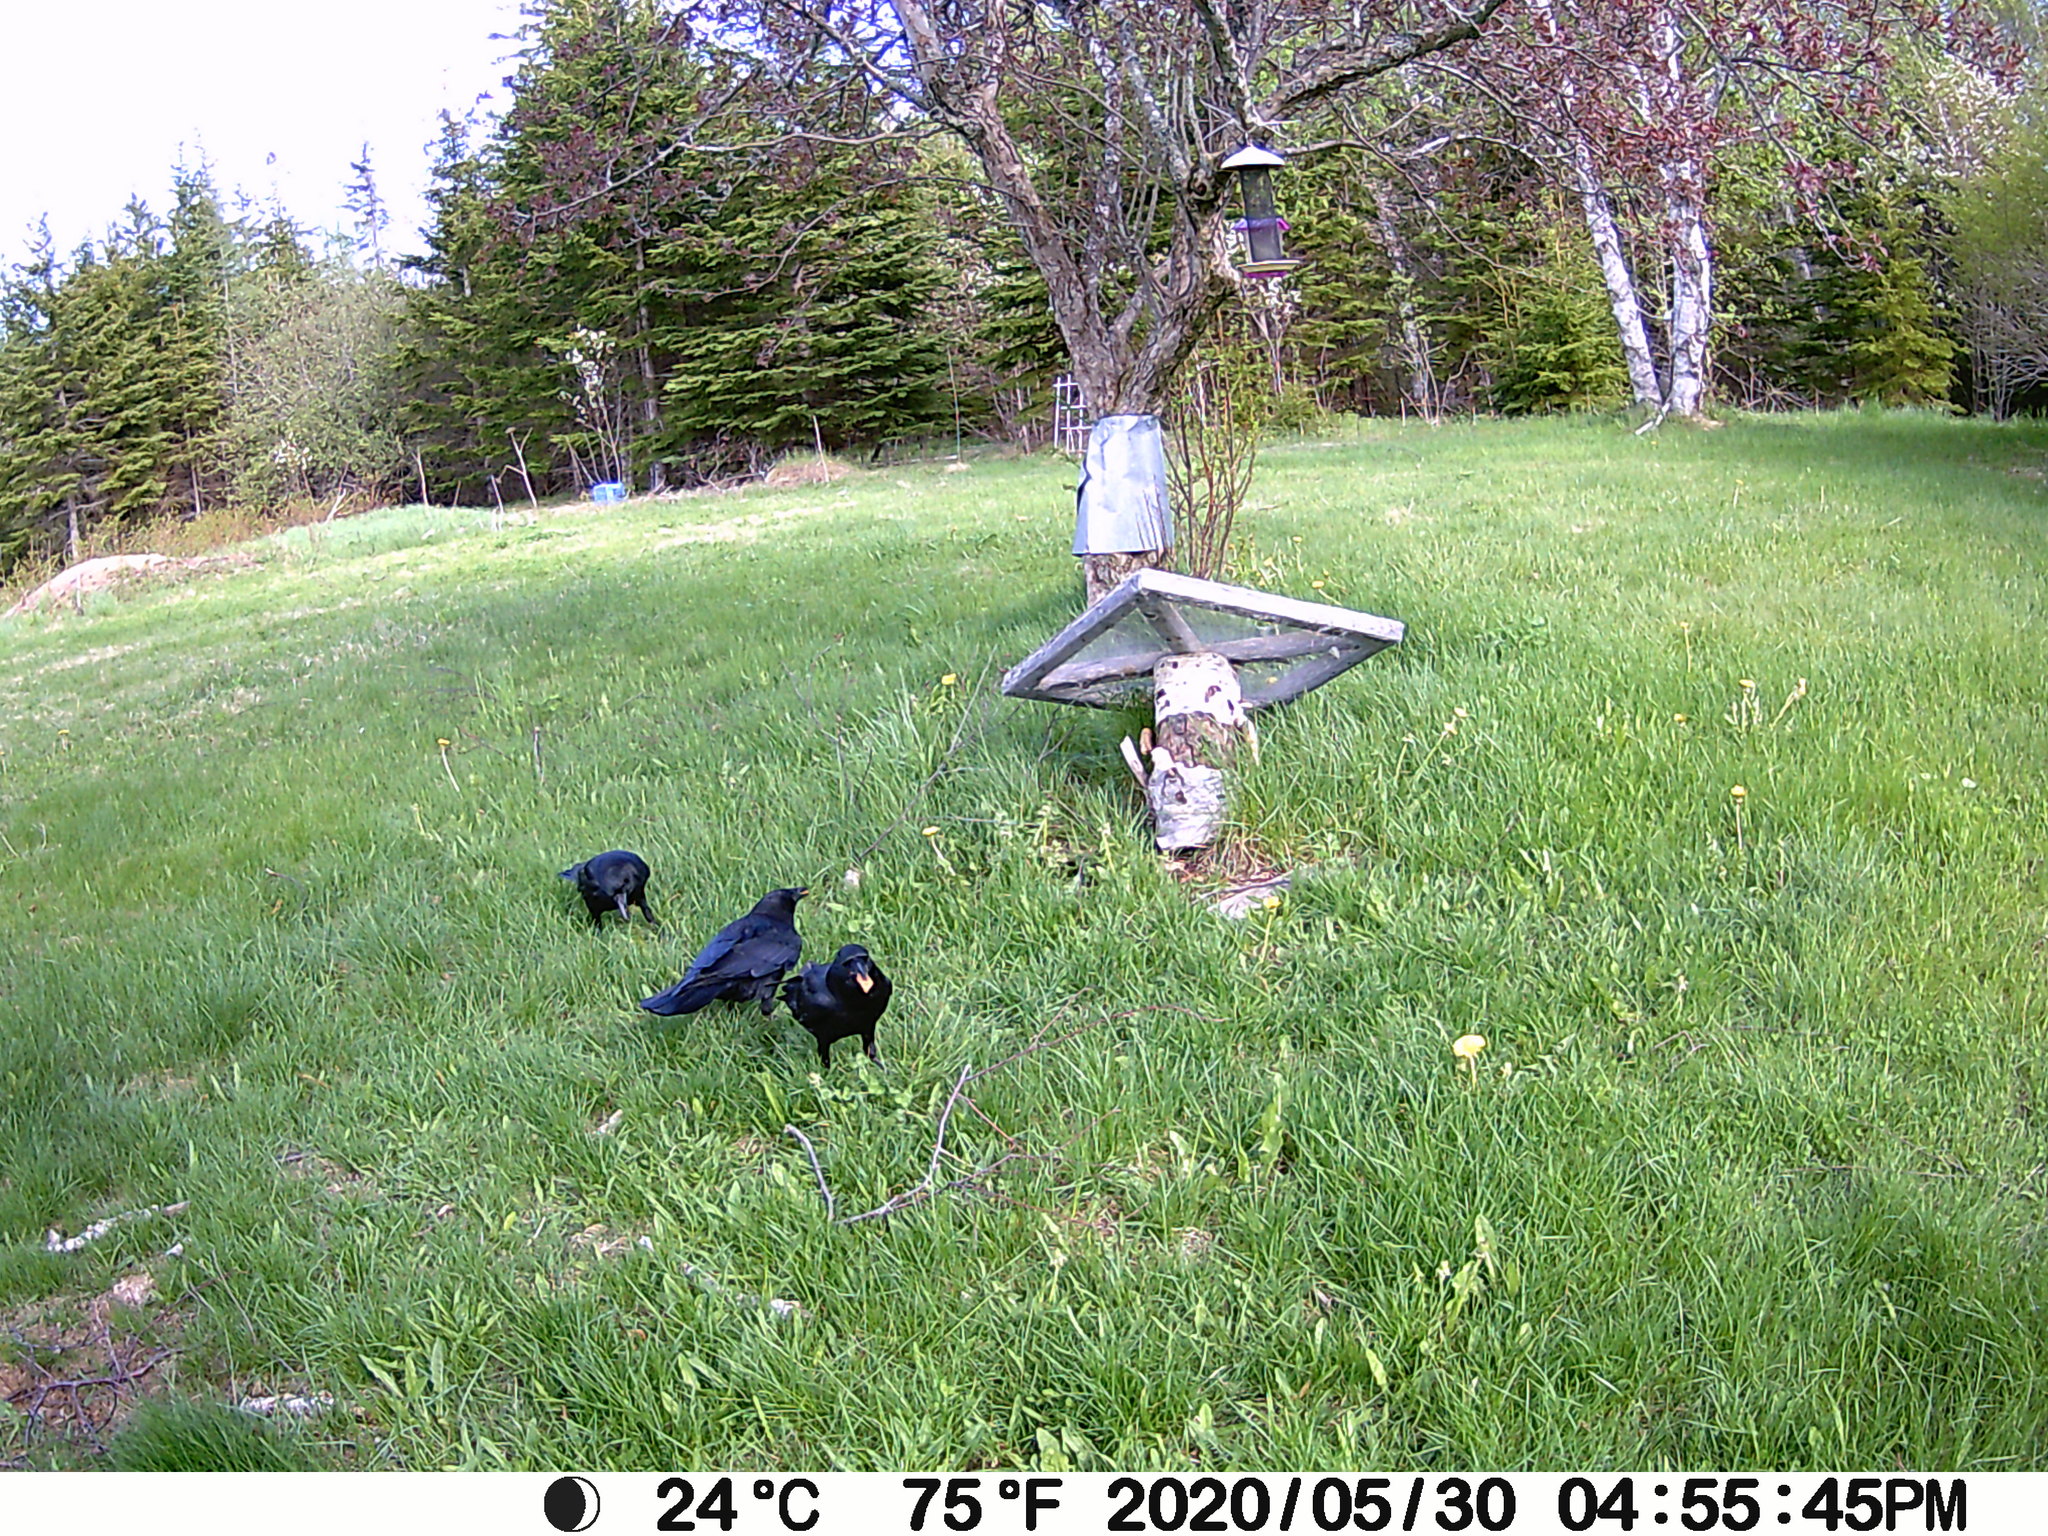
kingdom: Animalia
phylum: Chordata
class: Aves
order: Passeriformes
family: Corvidae
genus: Corvus
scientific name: Corvus brachyrhynchos
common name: American crow
